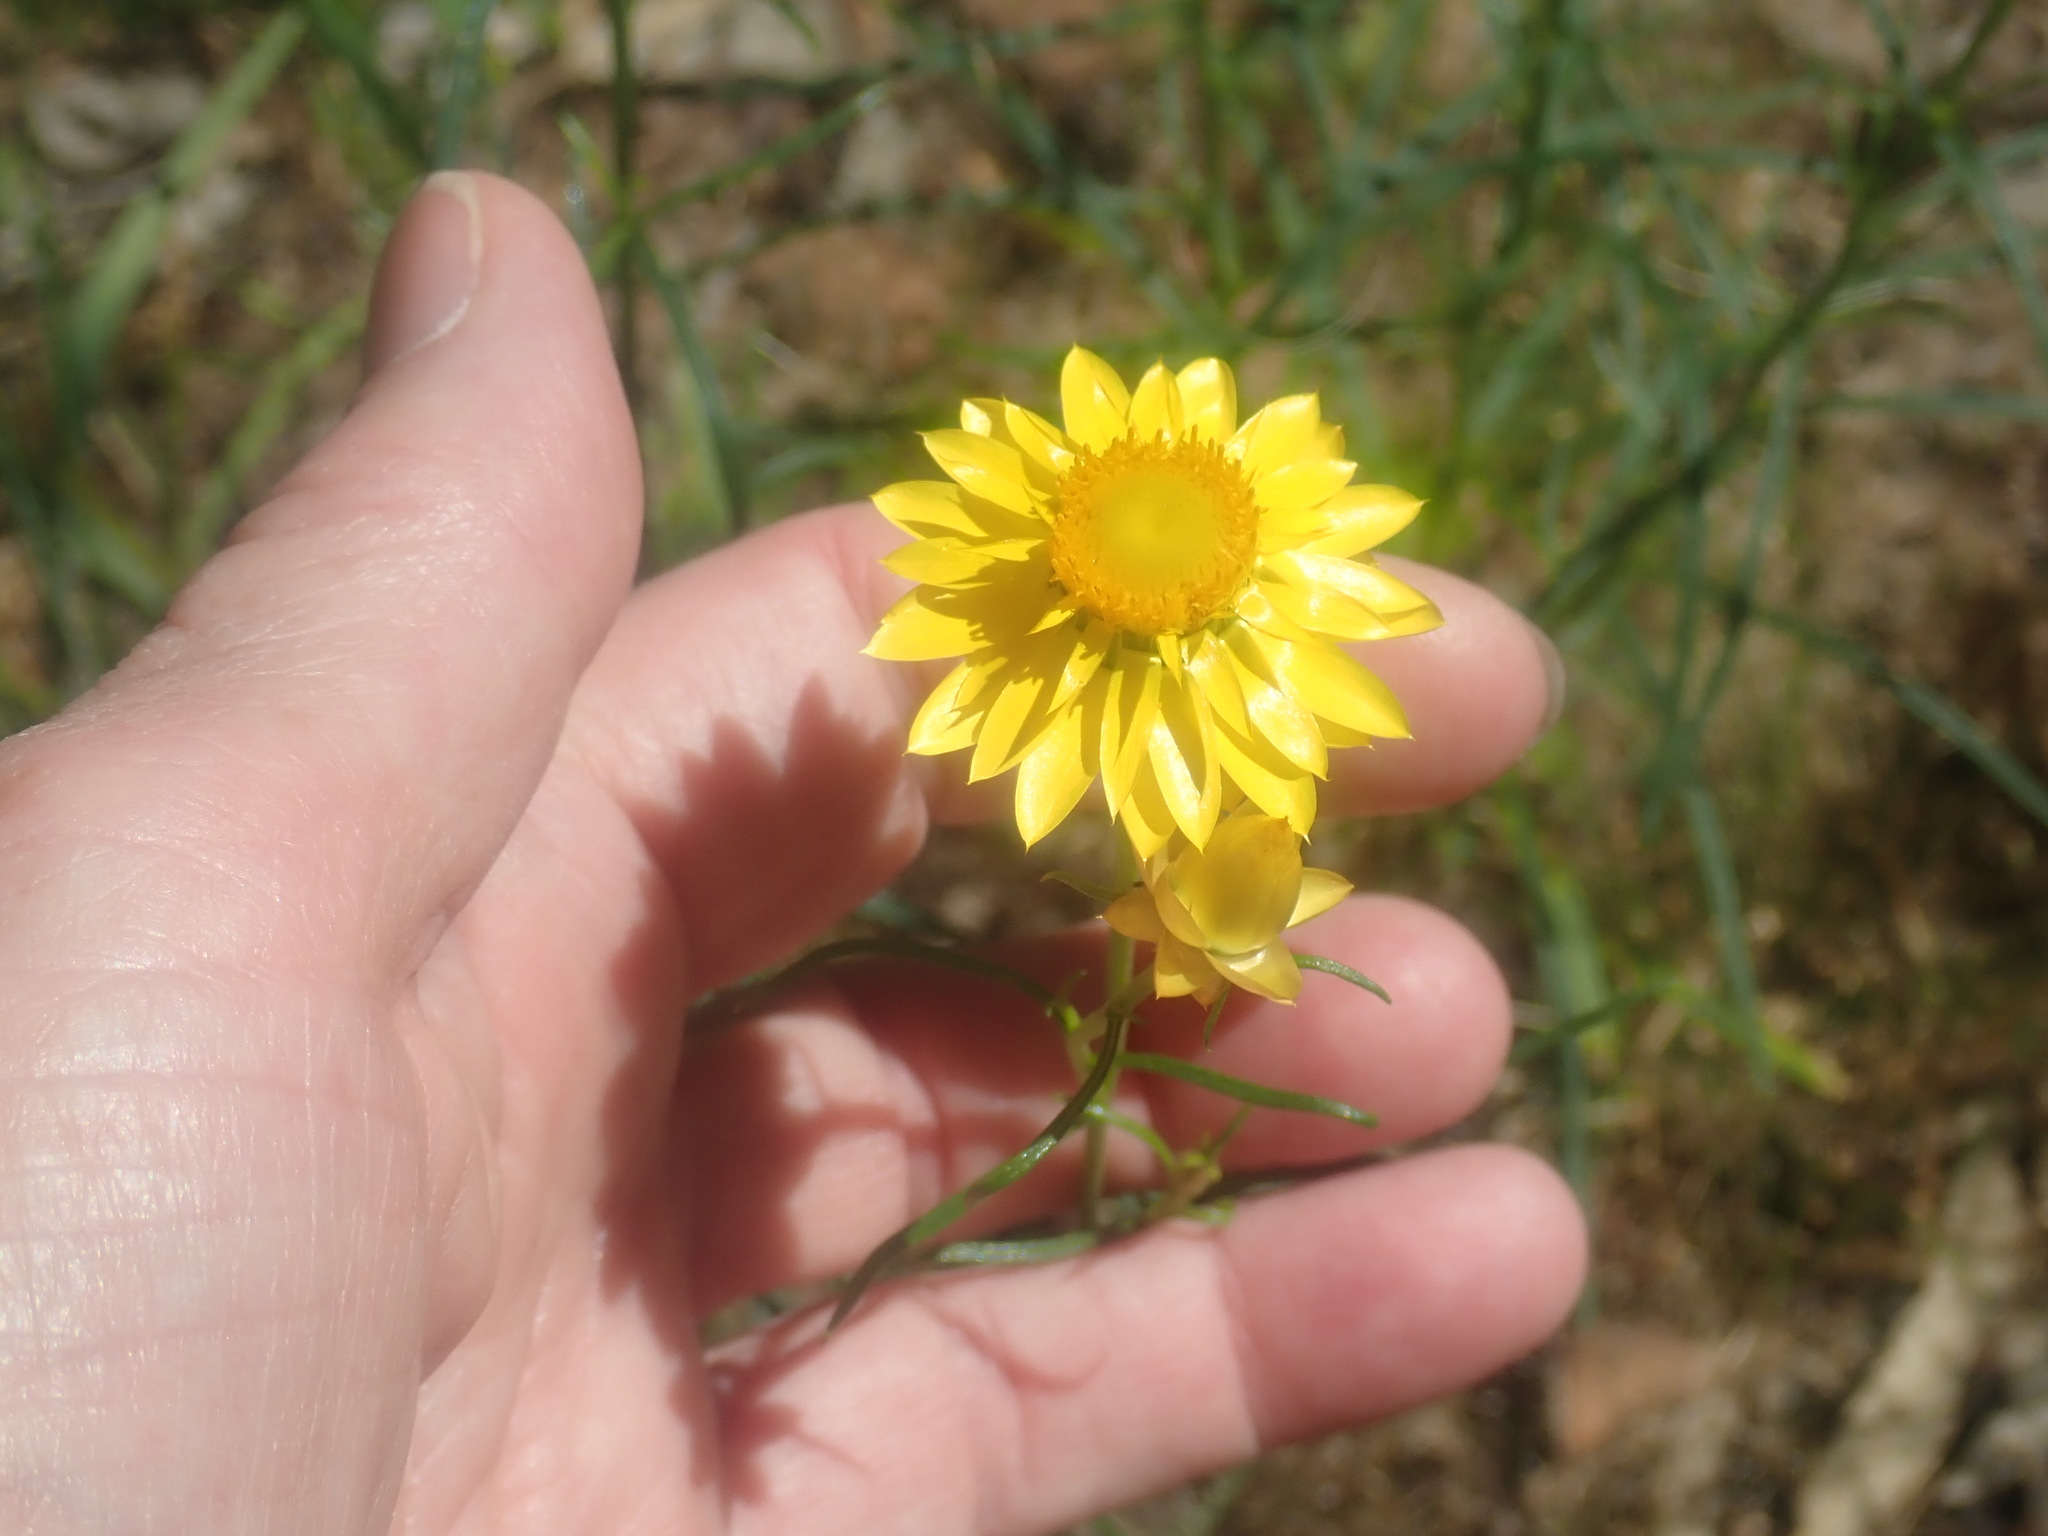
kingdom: Plantae
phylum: Tracheophyta
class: Magnoliopsida
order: Asterales
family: Asteraceae
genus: Xerochrysum
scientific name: Xerochrysum viscosum
